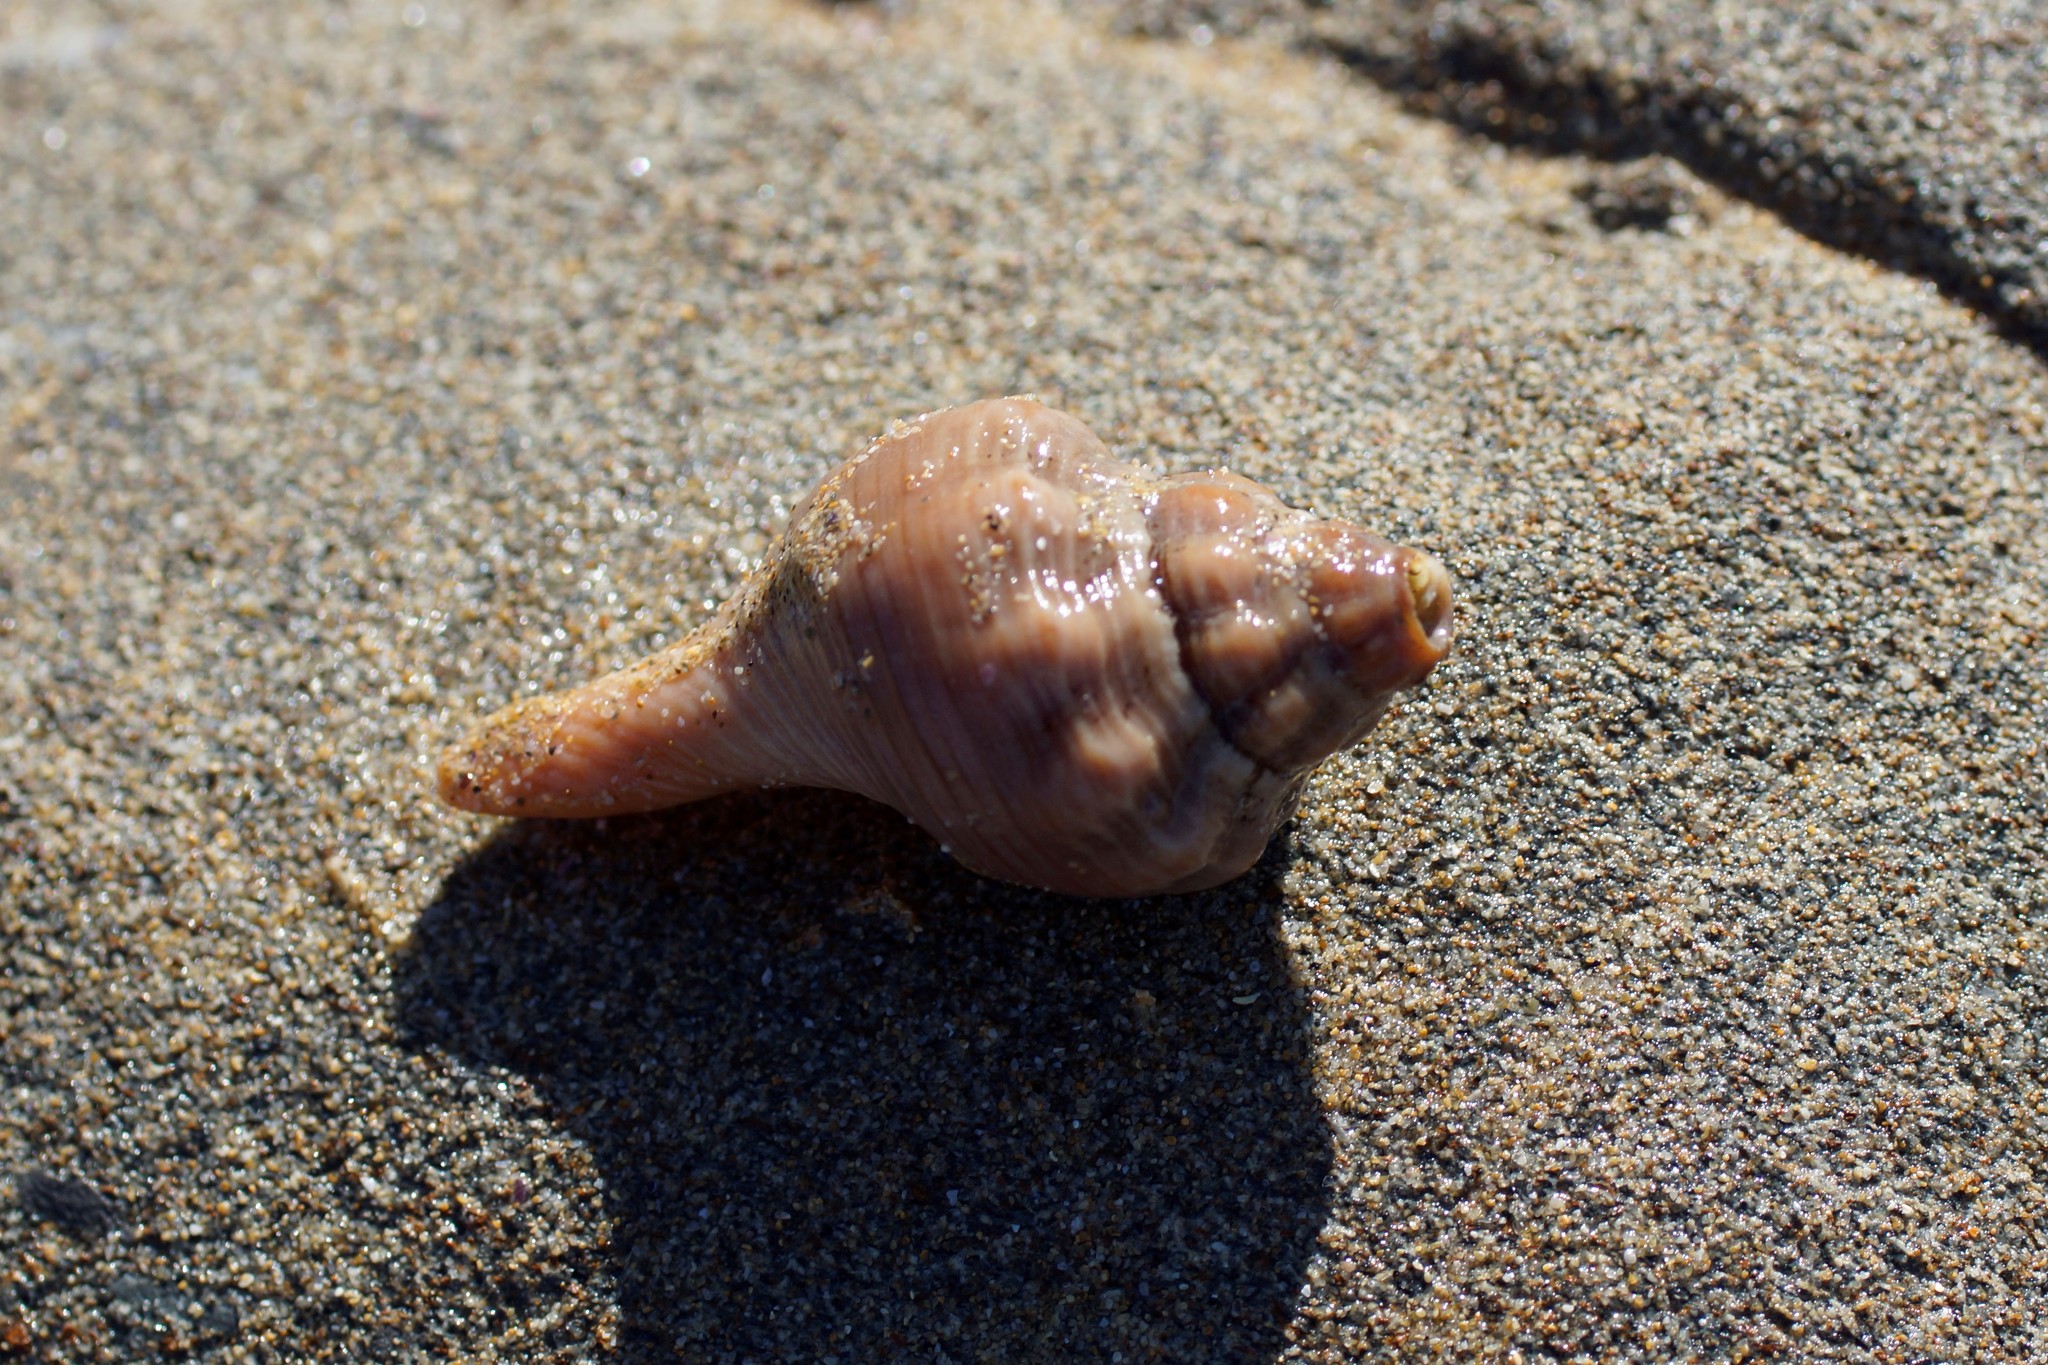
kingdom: Animalia
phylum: Mollusca
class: Gastropoda
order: Neogastropoda
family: Fasciolariidae
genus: Australaria
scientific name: Australaria australasia
